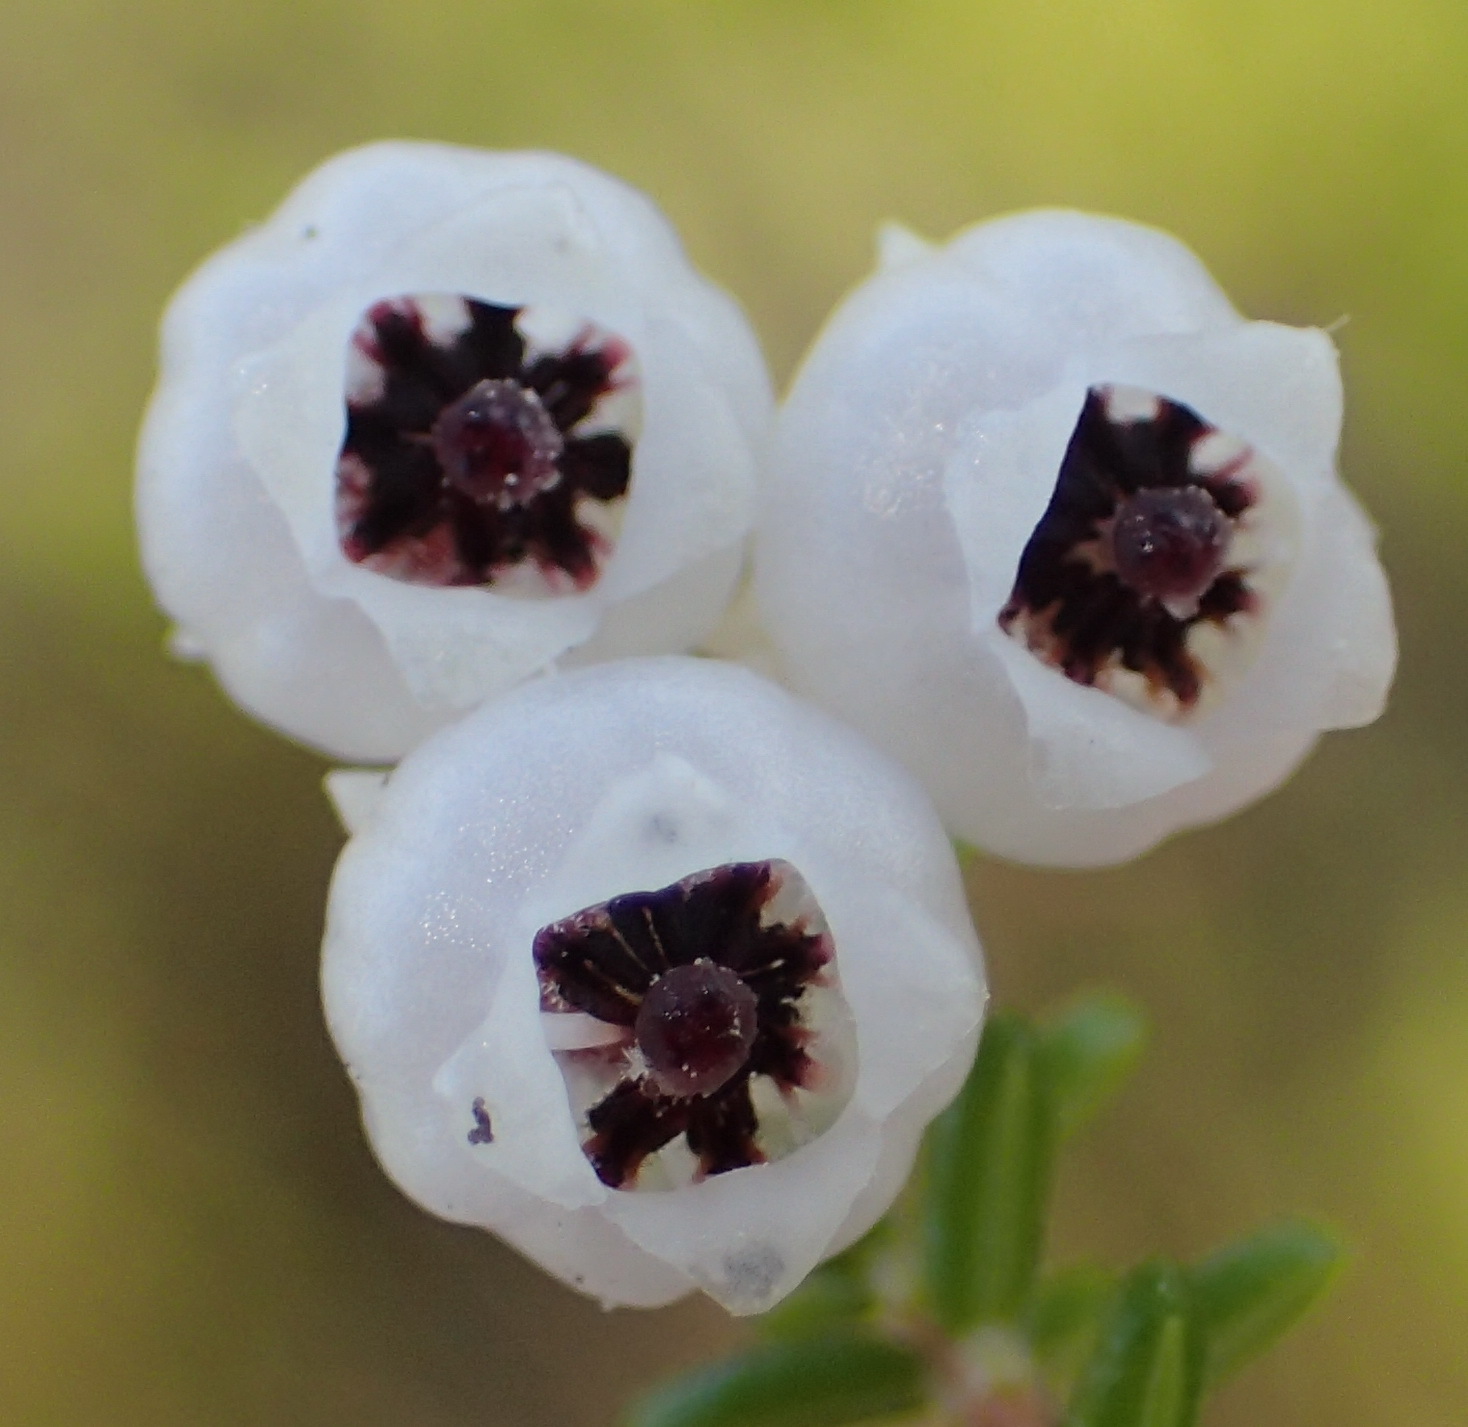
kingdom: Plantae
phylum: Tracheophyta
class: Magnoliopsida
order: Ericales
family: Ericaceae
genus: Erica
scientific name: Erica formosa
